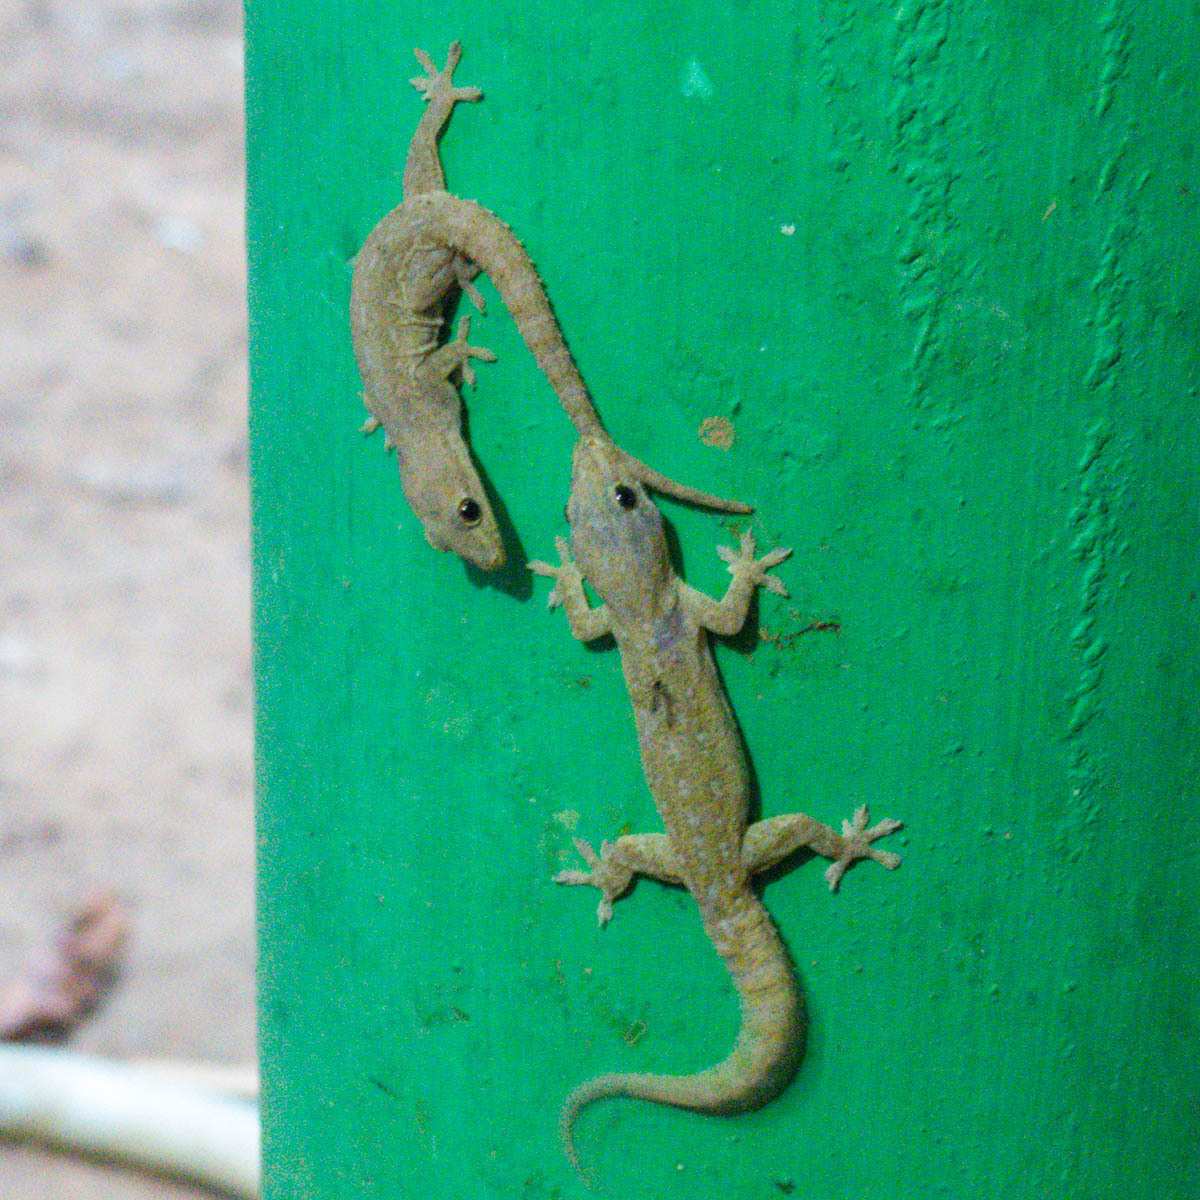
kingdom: Animalia
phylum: Chordata
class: Squamata
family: Gekkonidae
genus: Hemidactylus
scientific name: Hemidactylus frenatus
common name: Common house gecko
